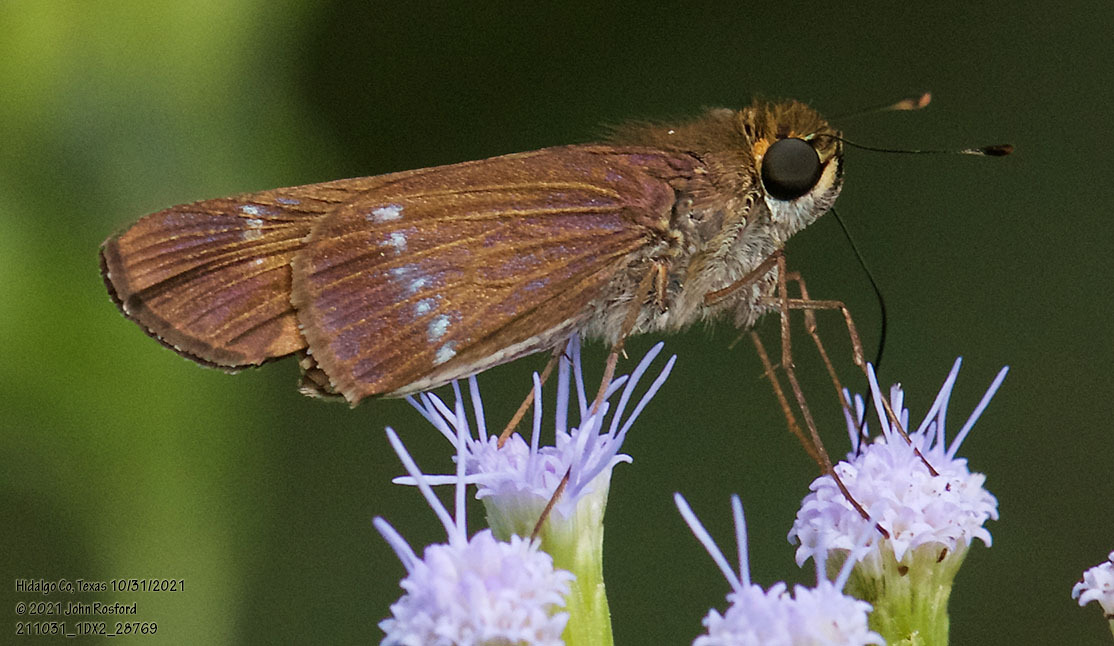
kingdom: Animalia
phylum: Arthropoda
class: Insecta
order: Lepidoptera
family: Hesperiidae
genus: Turesis
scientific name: Turesis lucas
